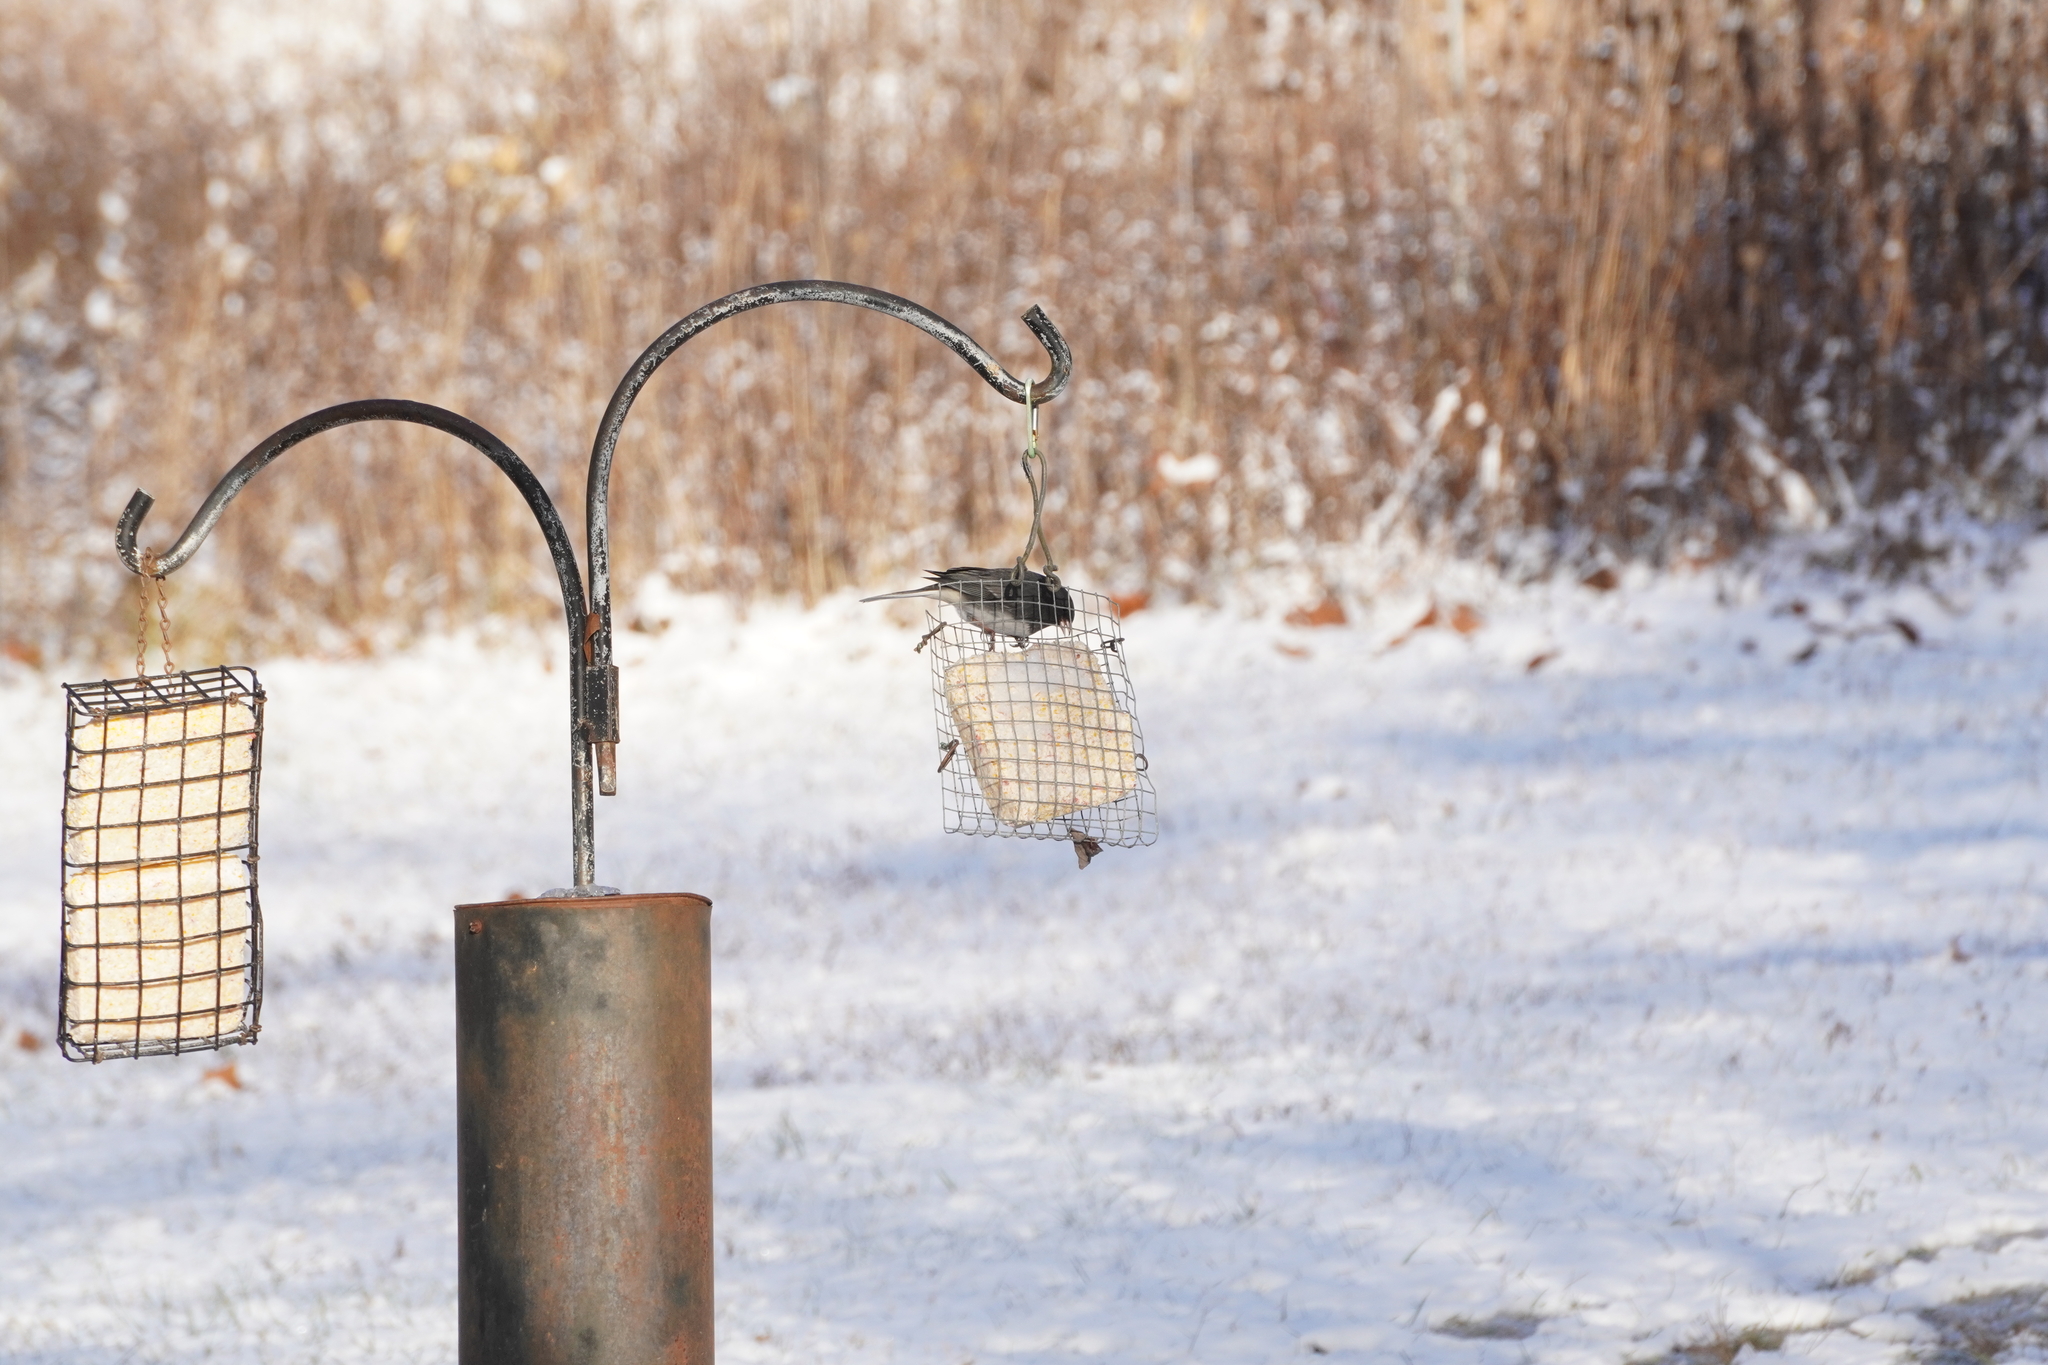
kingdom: Animalia
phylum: Chordata
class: Aves
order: Passeriformes
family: Passerellidae
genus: Junco
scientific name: Junco hyemalis
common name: Dark-eyed junco
